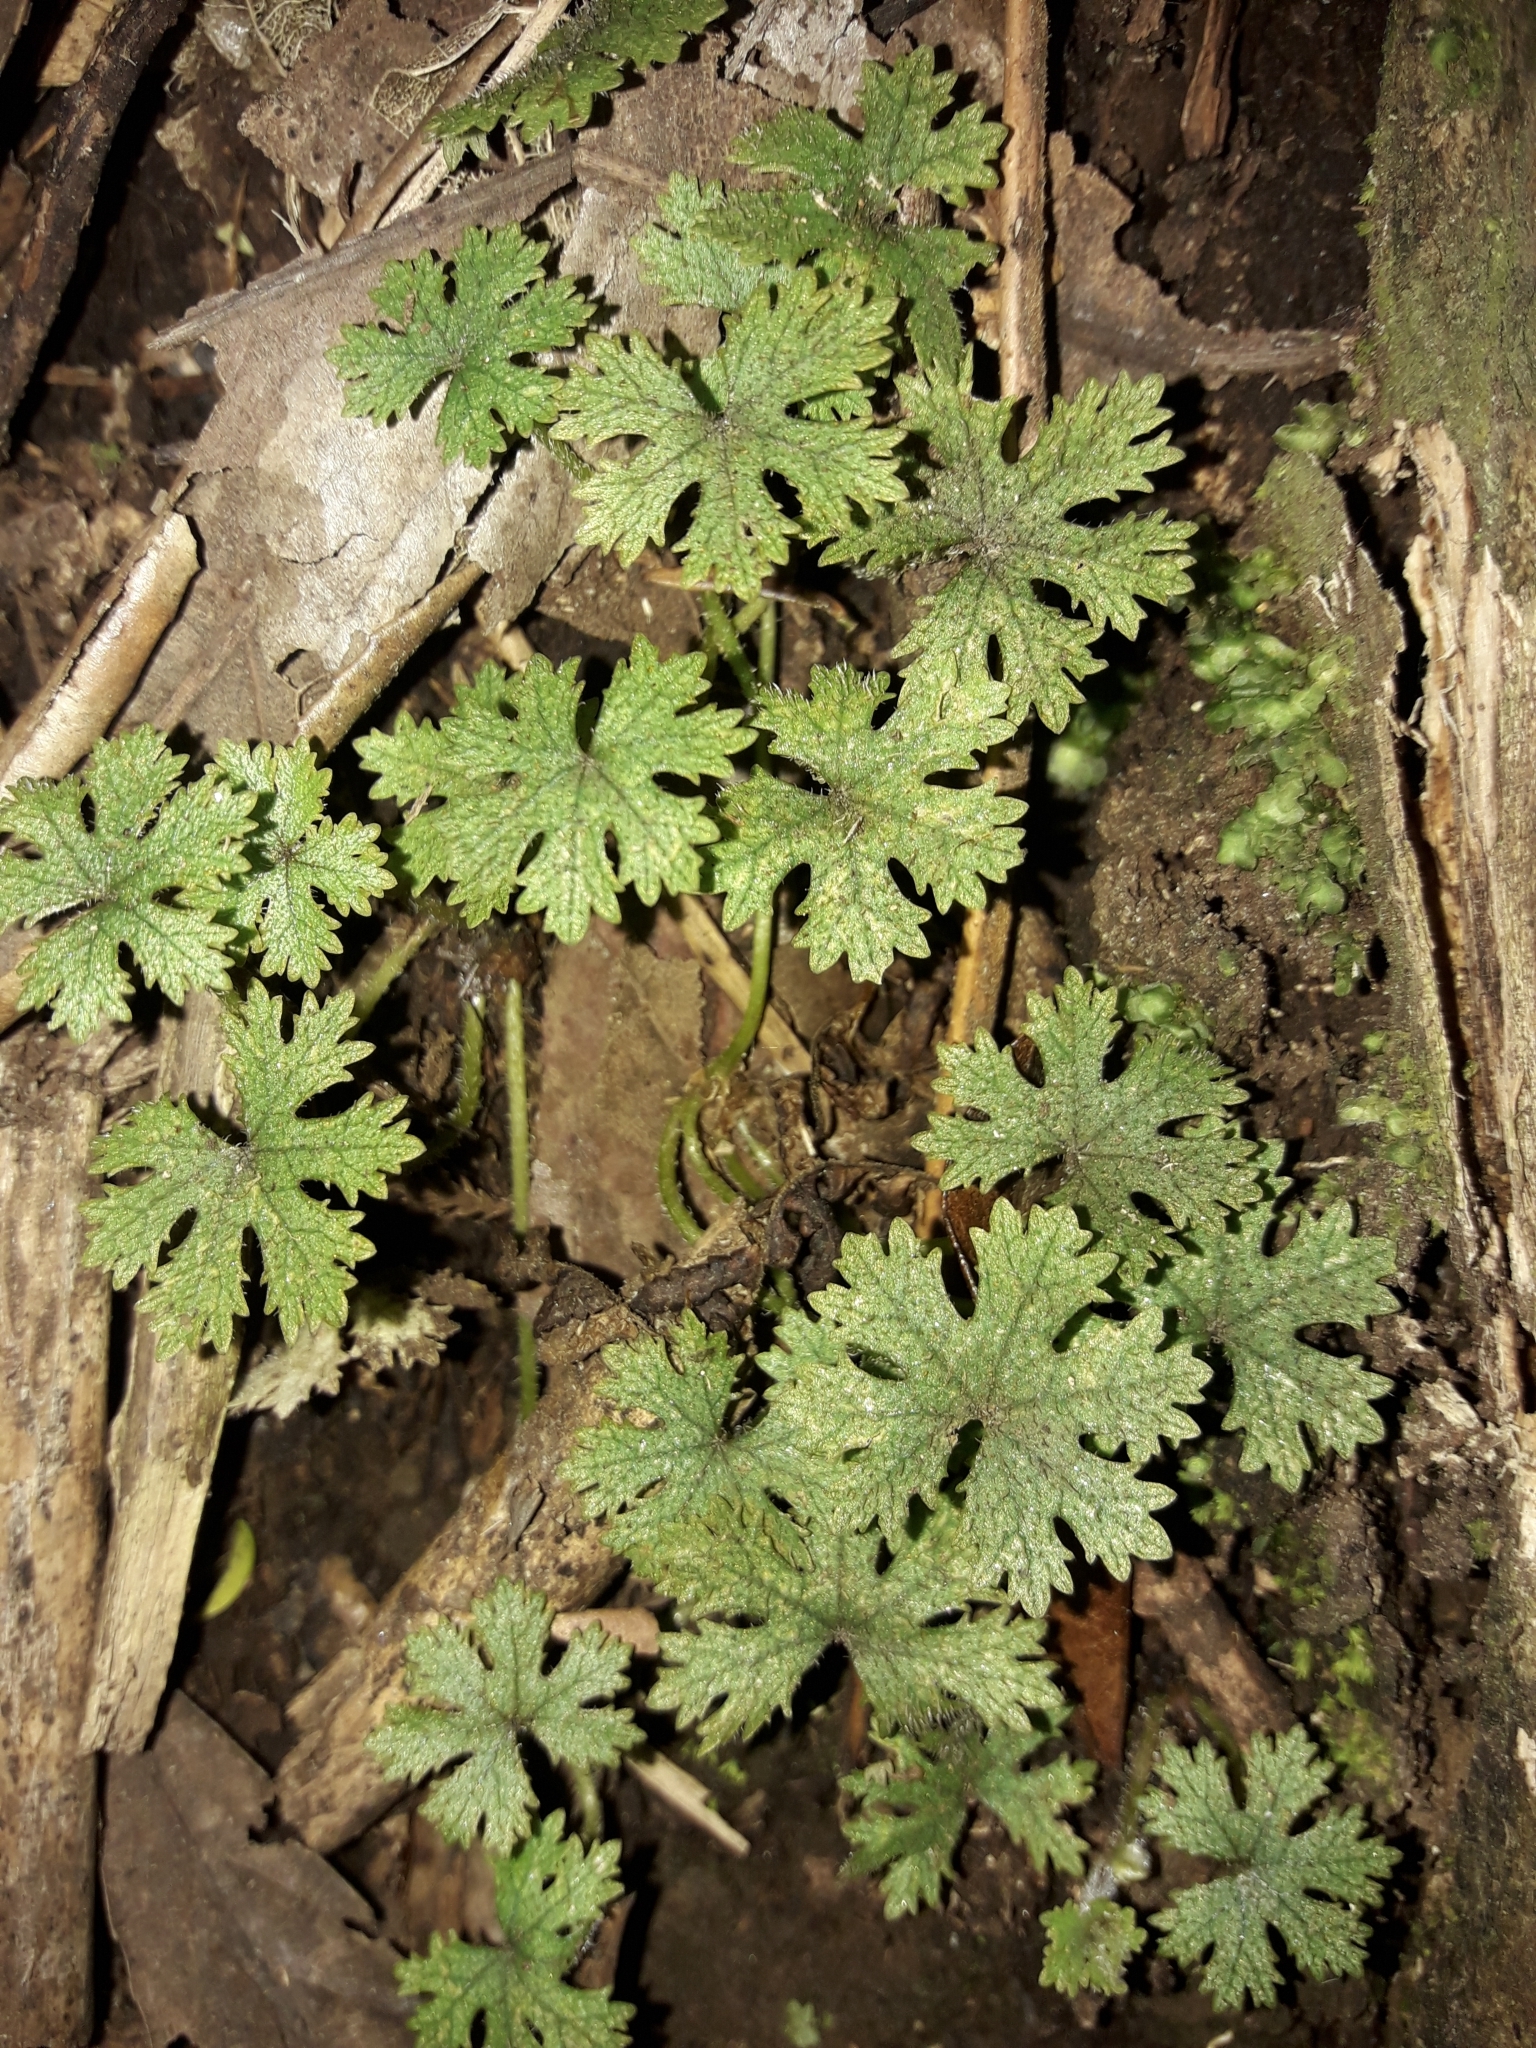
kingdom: Plantae
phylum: Tracheophyta
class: Magnoliopsida
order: Apiales
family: Araliaceae
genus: Hydrocotyle
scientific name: Hydrocotyle dissecta
